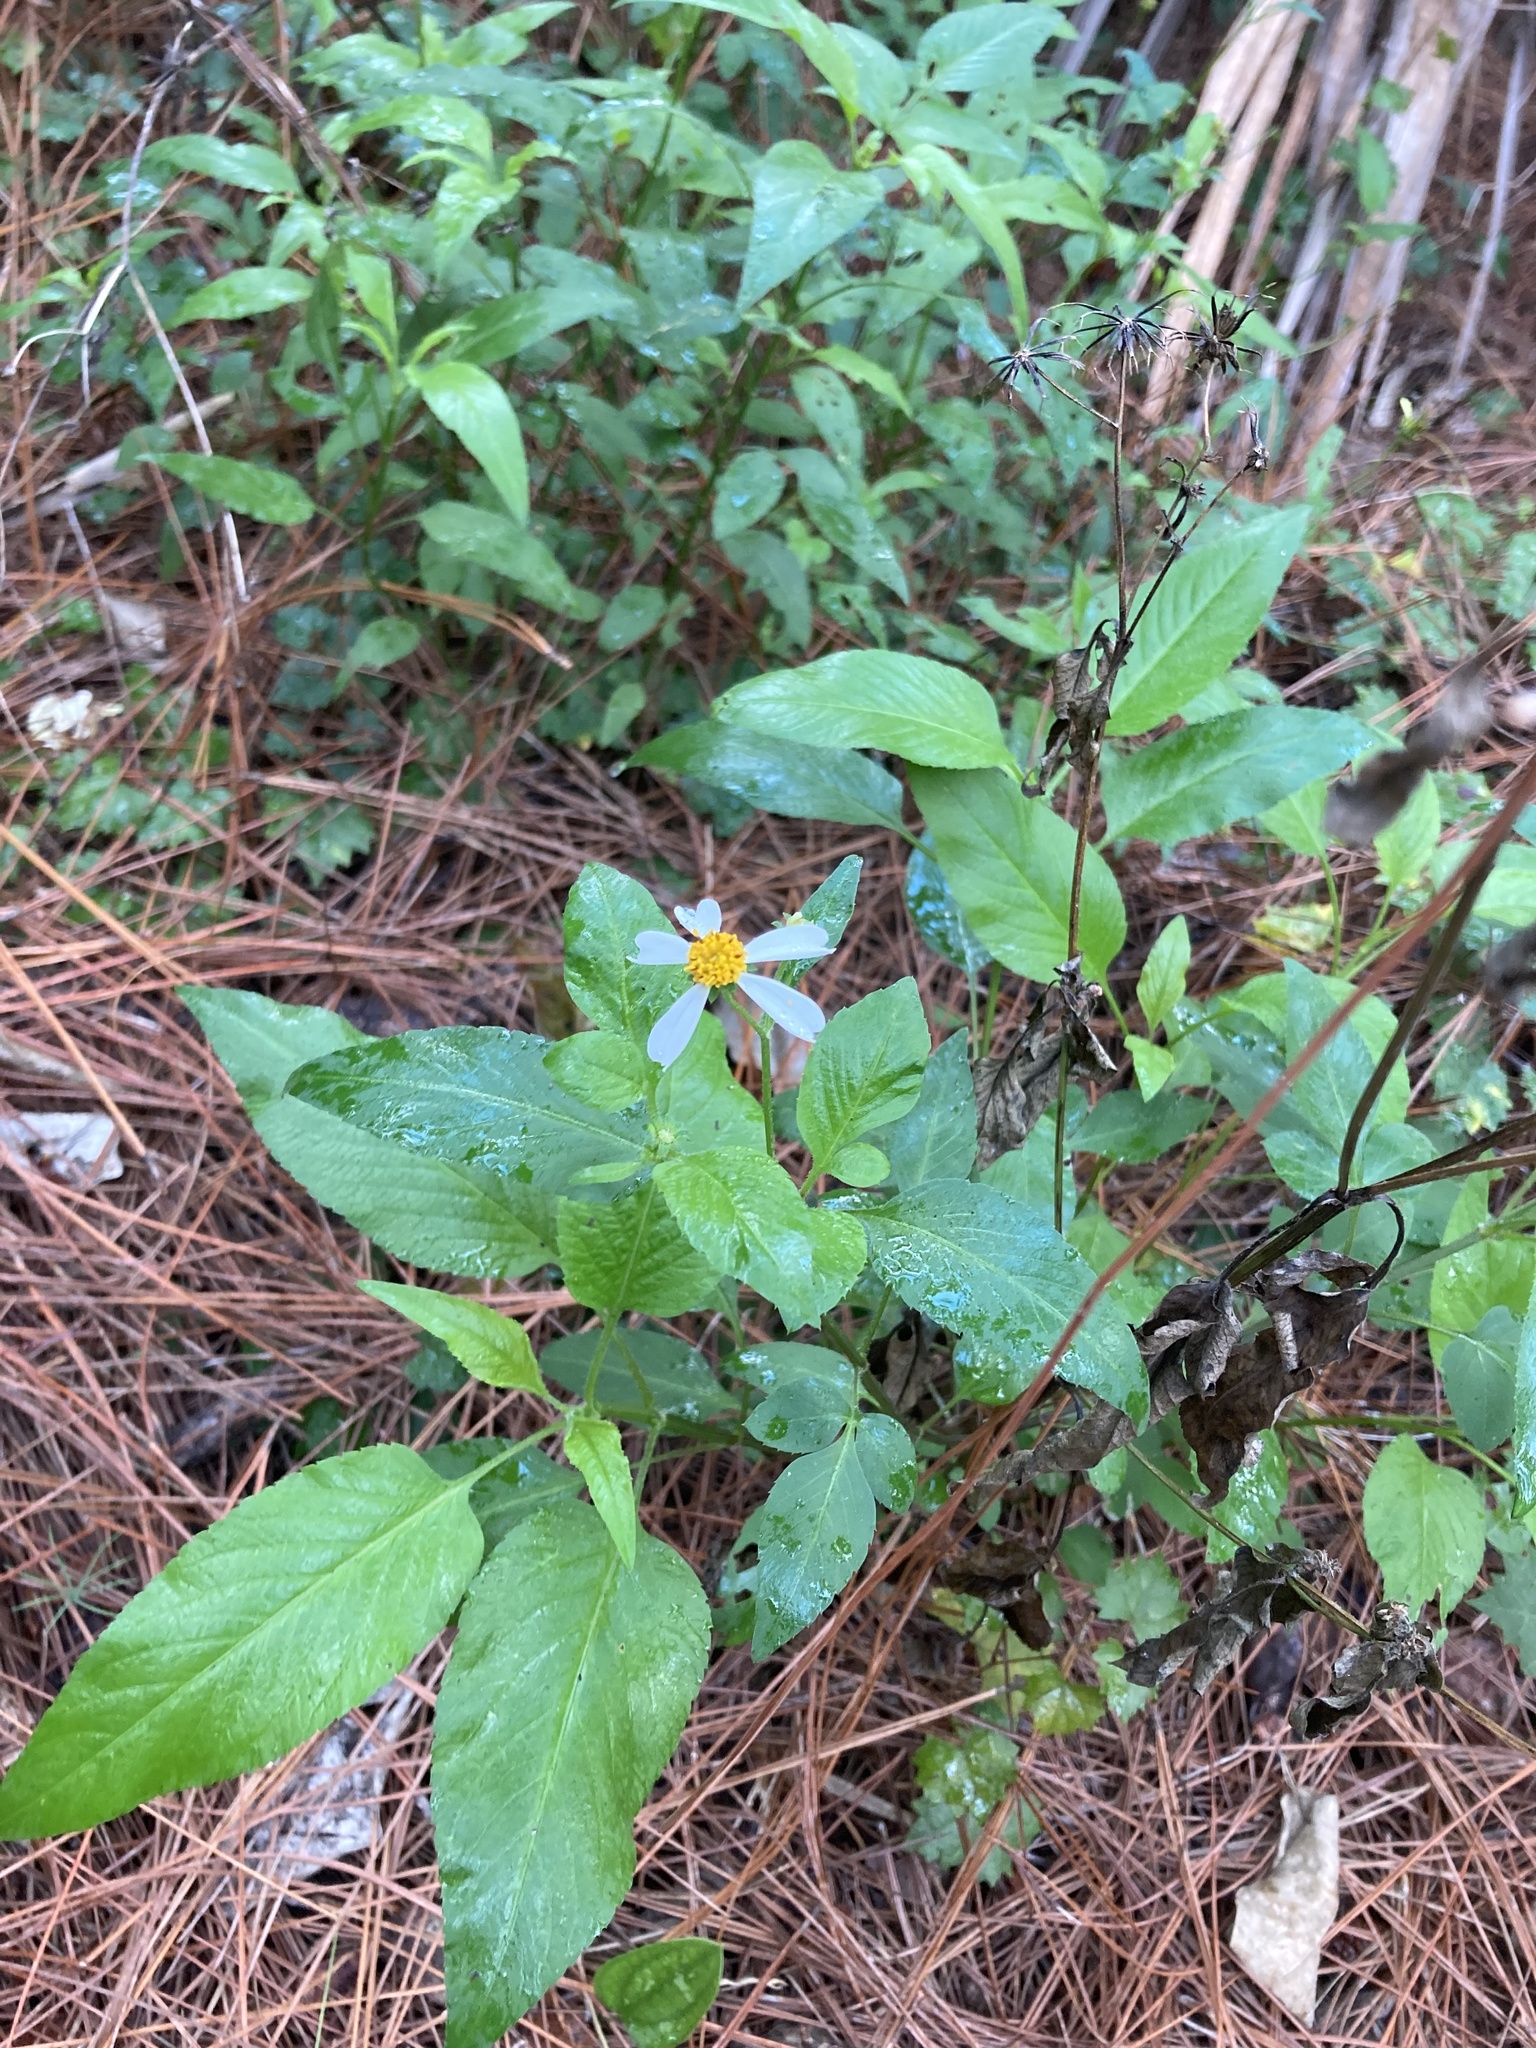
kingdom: Plantae
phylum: Tracheophyta
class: Magnoliopsida
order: Asterales
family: Asteraceae
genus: Bidens
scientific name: Bidens alba
